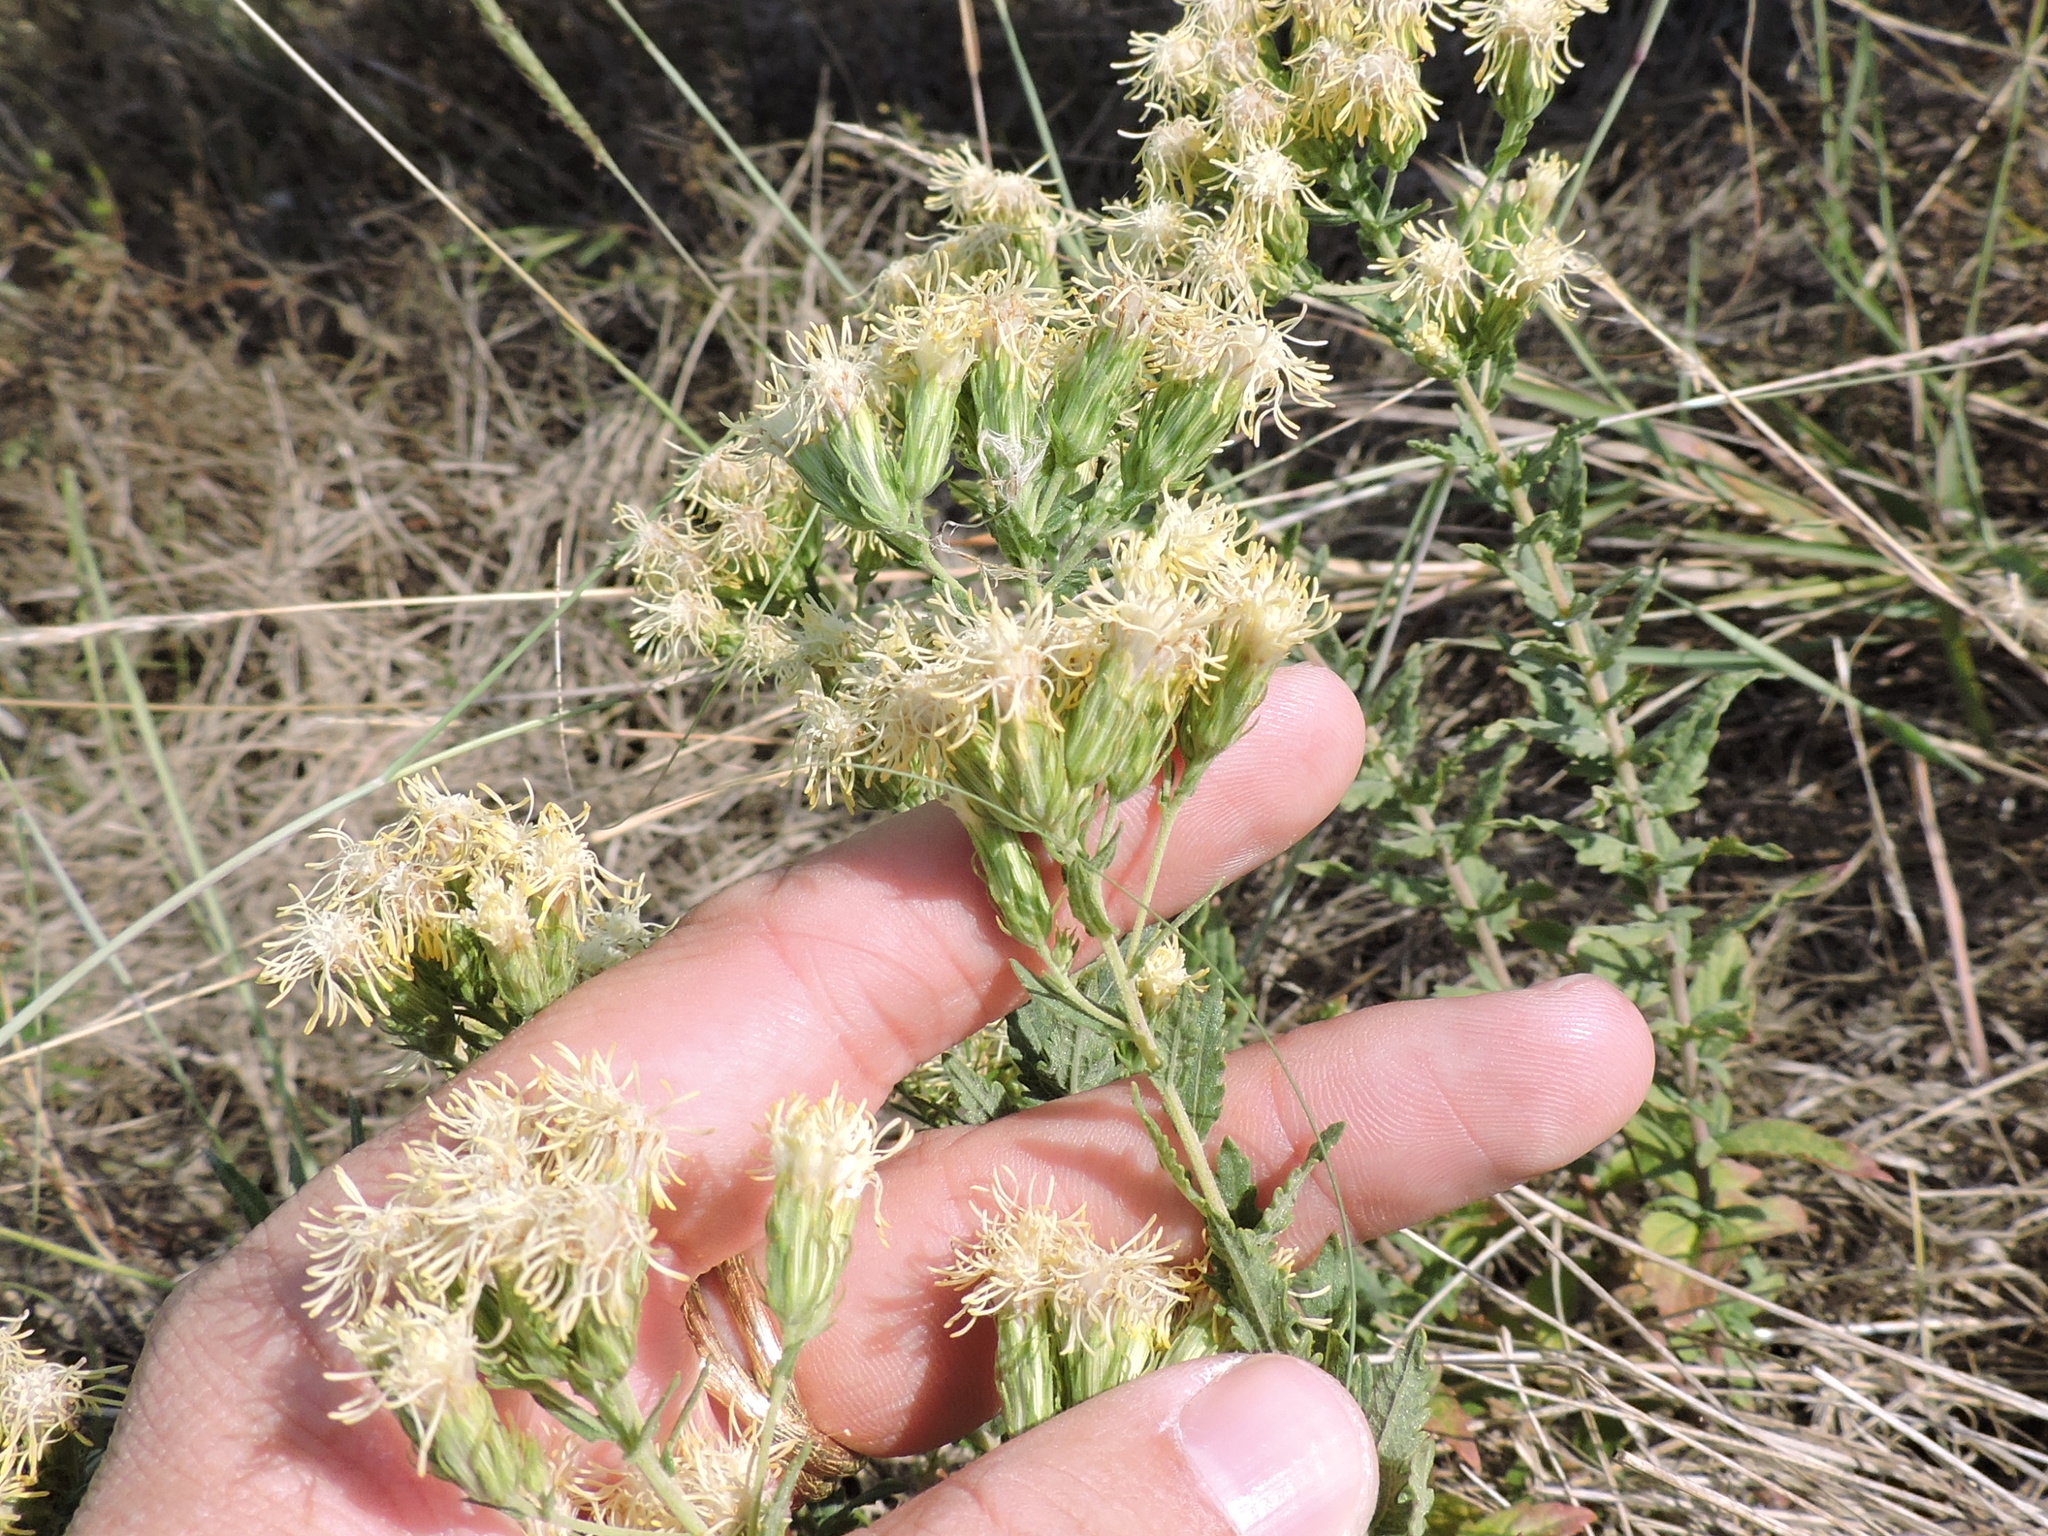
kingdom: Plantae
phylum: Tracheophyta
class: Magnoliopsida
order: Asterales
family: Asteraceae
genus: Brickellia
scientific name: Brickellia eupatorioides
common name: False boneset
